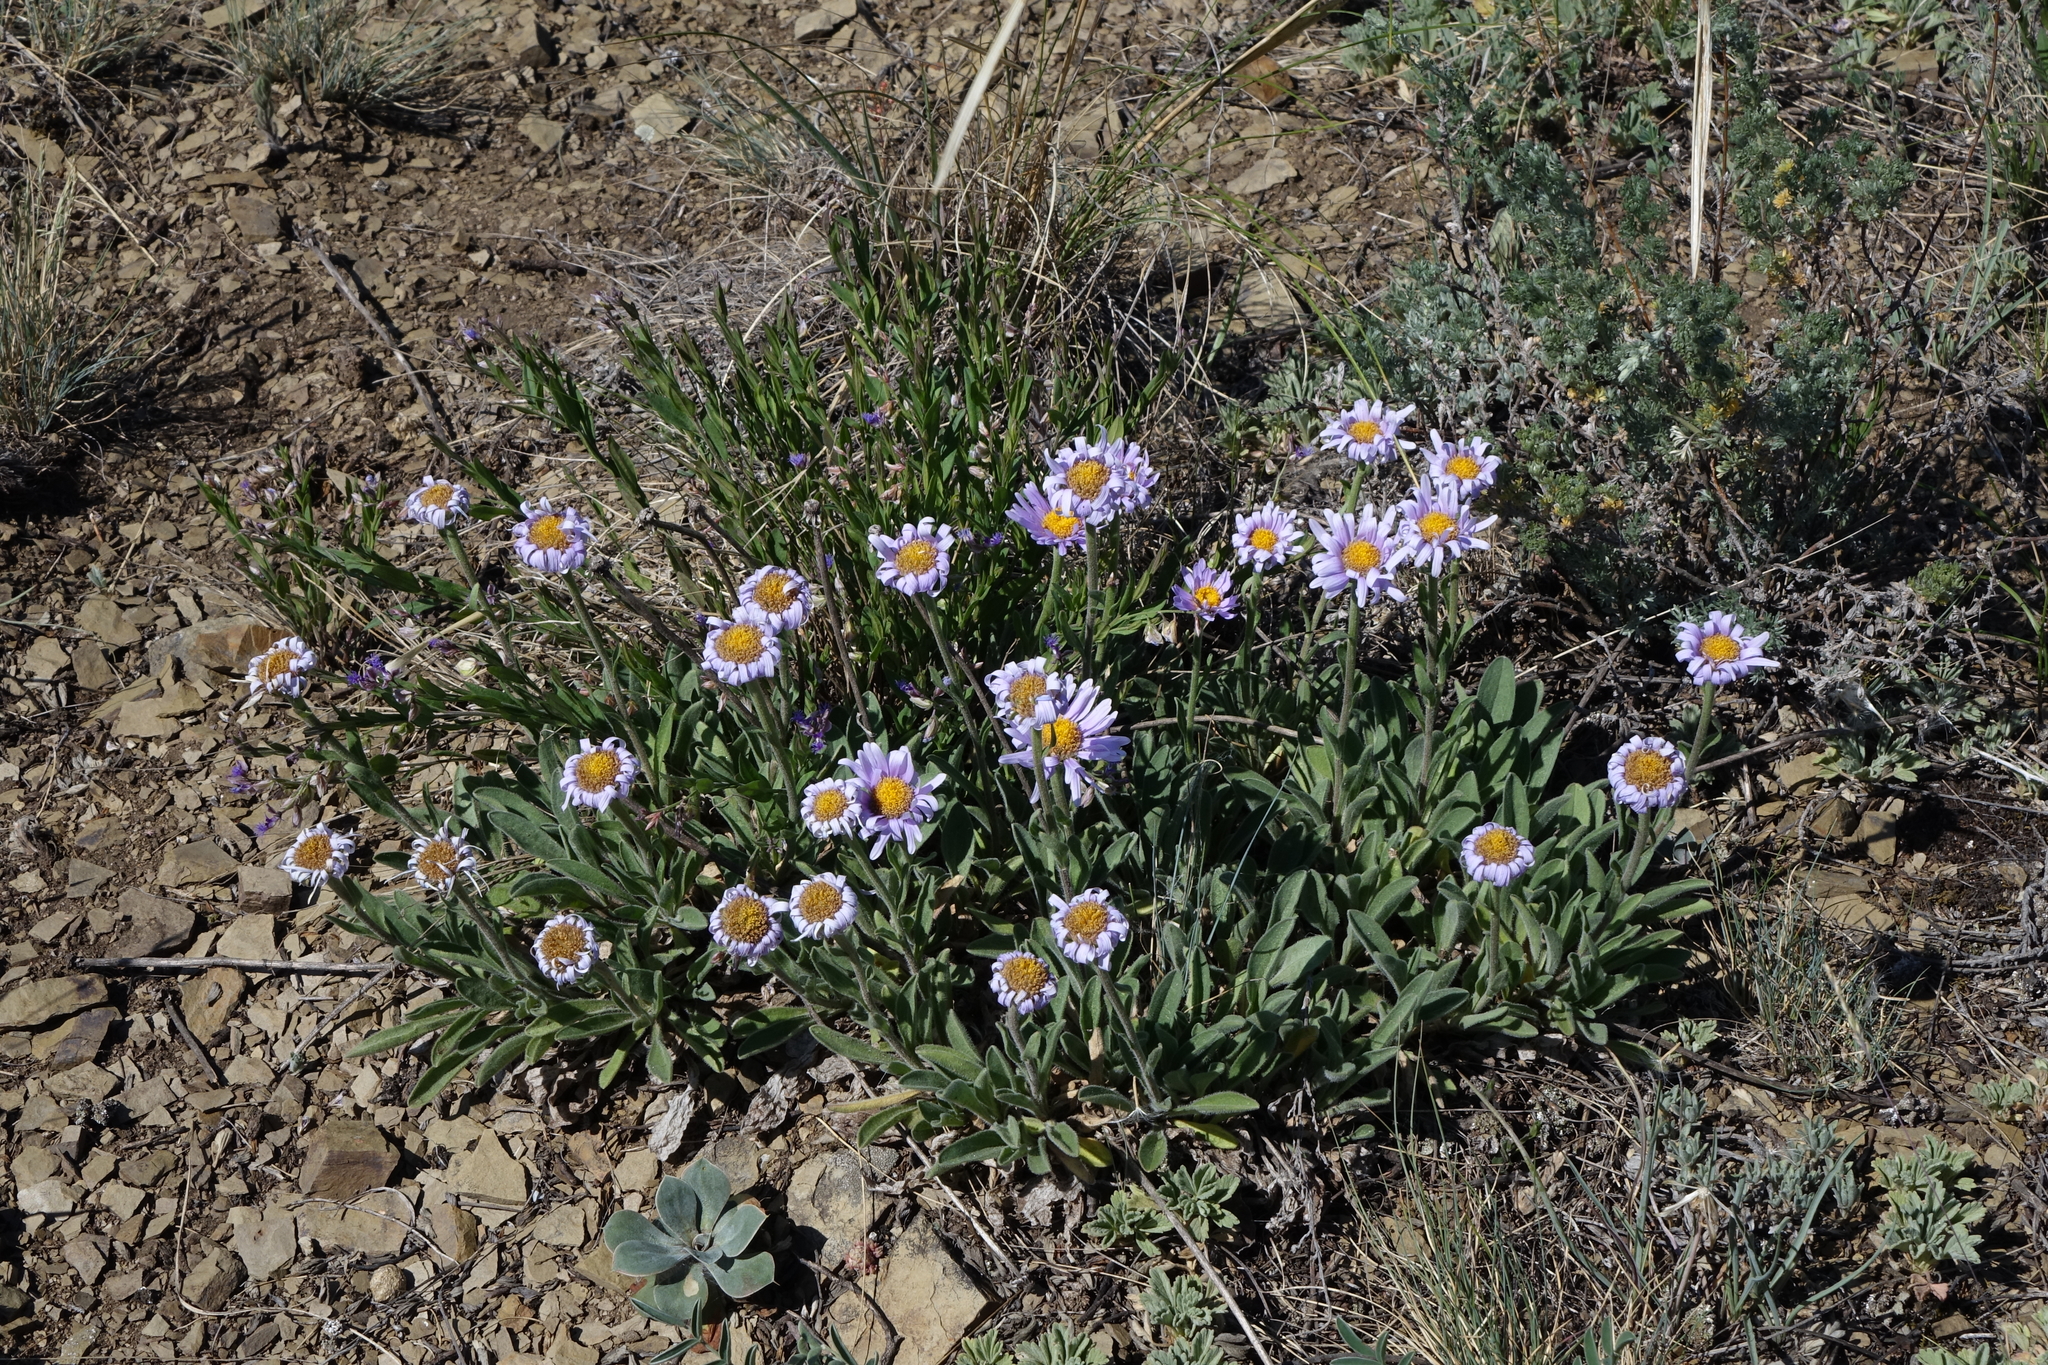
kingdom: Plantae
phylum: Tracheophyta
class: Magnoliopsida
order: Asterales
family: Asteraceae
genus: Aster
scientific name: Aster alpinus
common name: Alpine aster
